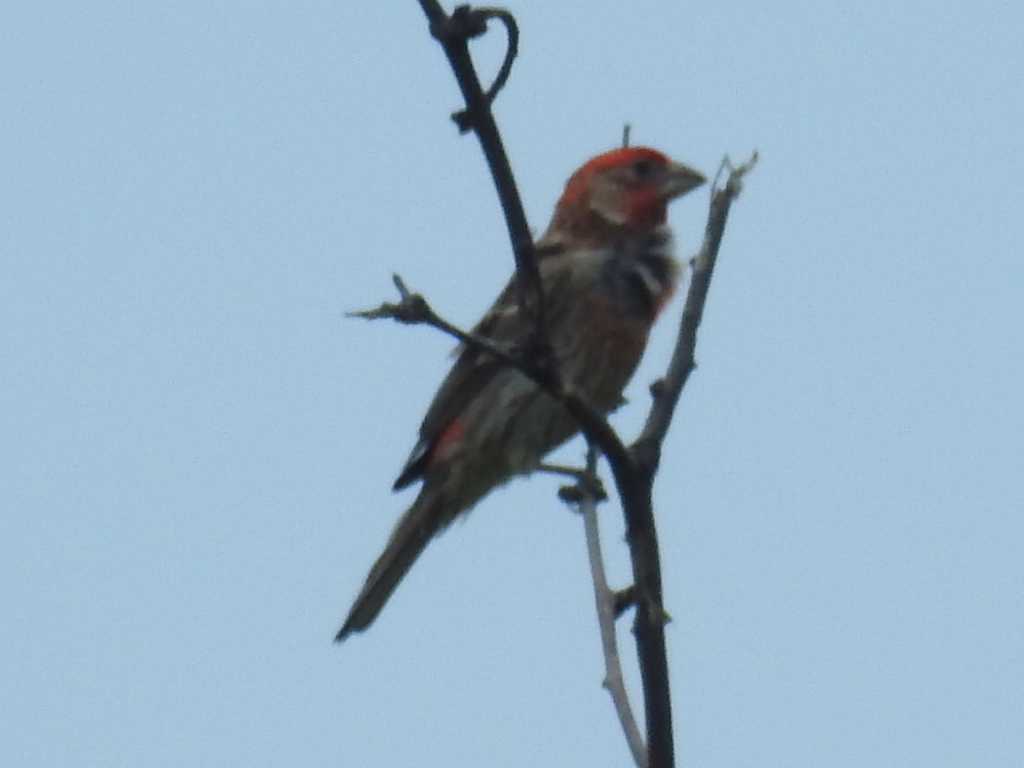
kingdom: Animalia
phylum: Chordata
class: Aves
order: Passeriformes
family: Fringillidae
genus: Haemorhous
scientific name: Haemorhous mexicanus
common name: House finch
